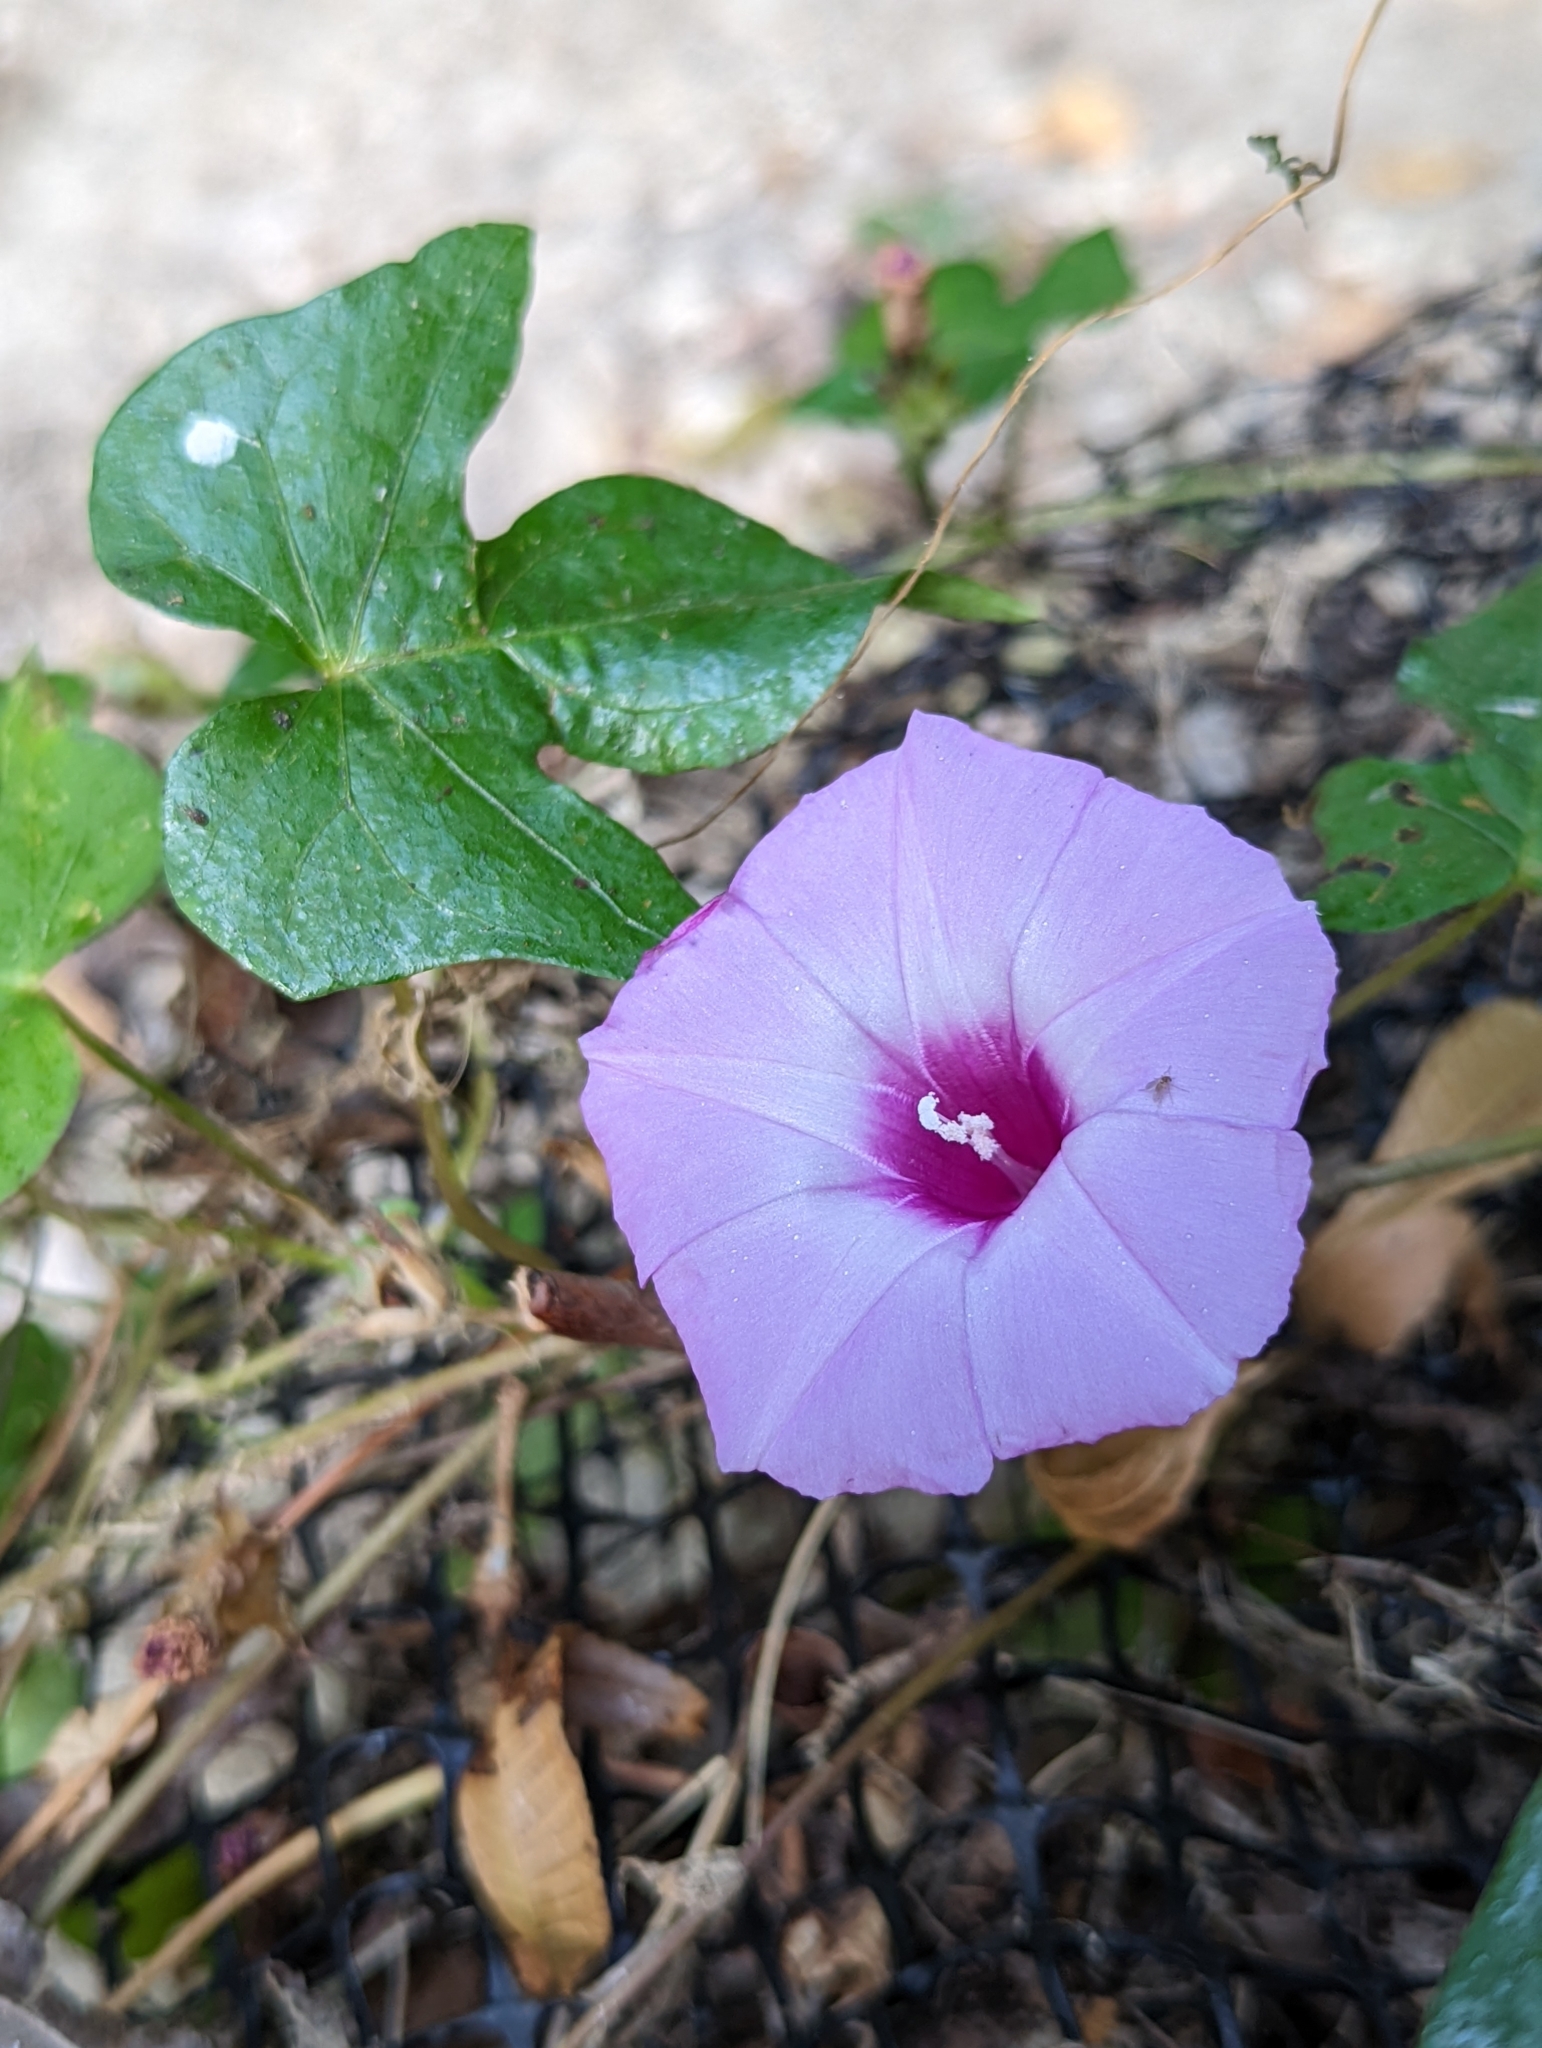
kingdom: Plantae
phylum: Tracheophyta
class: Magnoliopsida
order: Solanales
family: Convolvulaceae
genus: Ipomoea
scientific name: Ipomoea cordatotriloba
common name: Cotton morning glory
